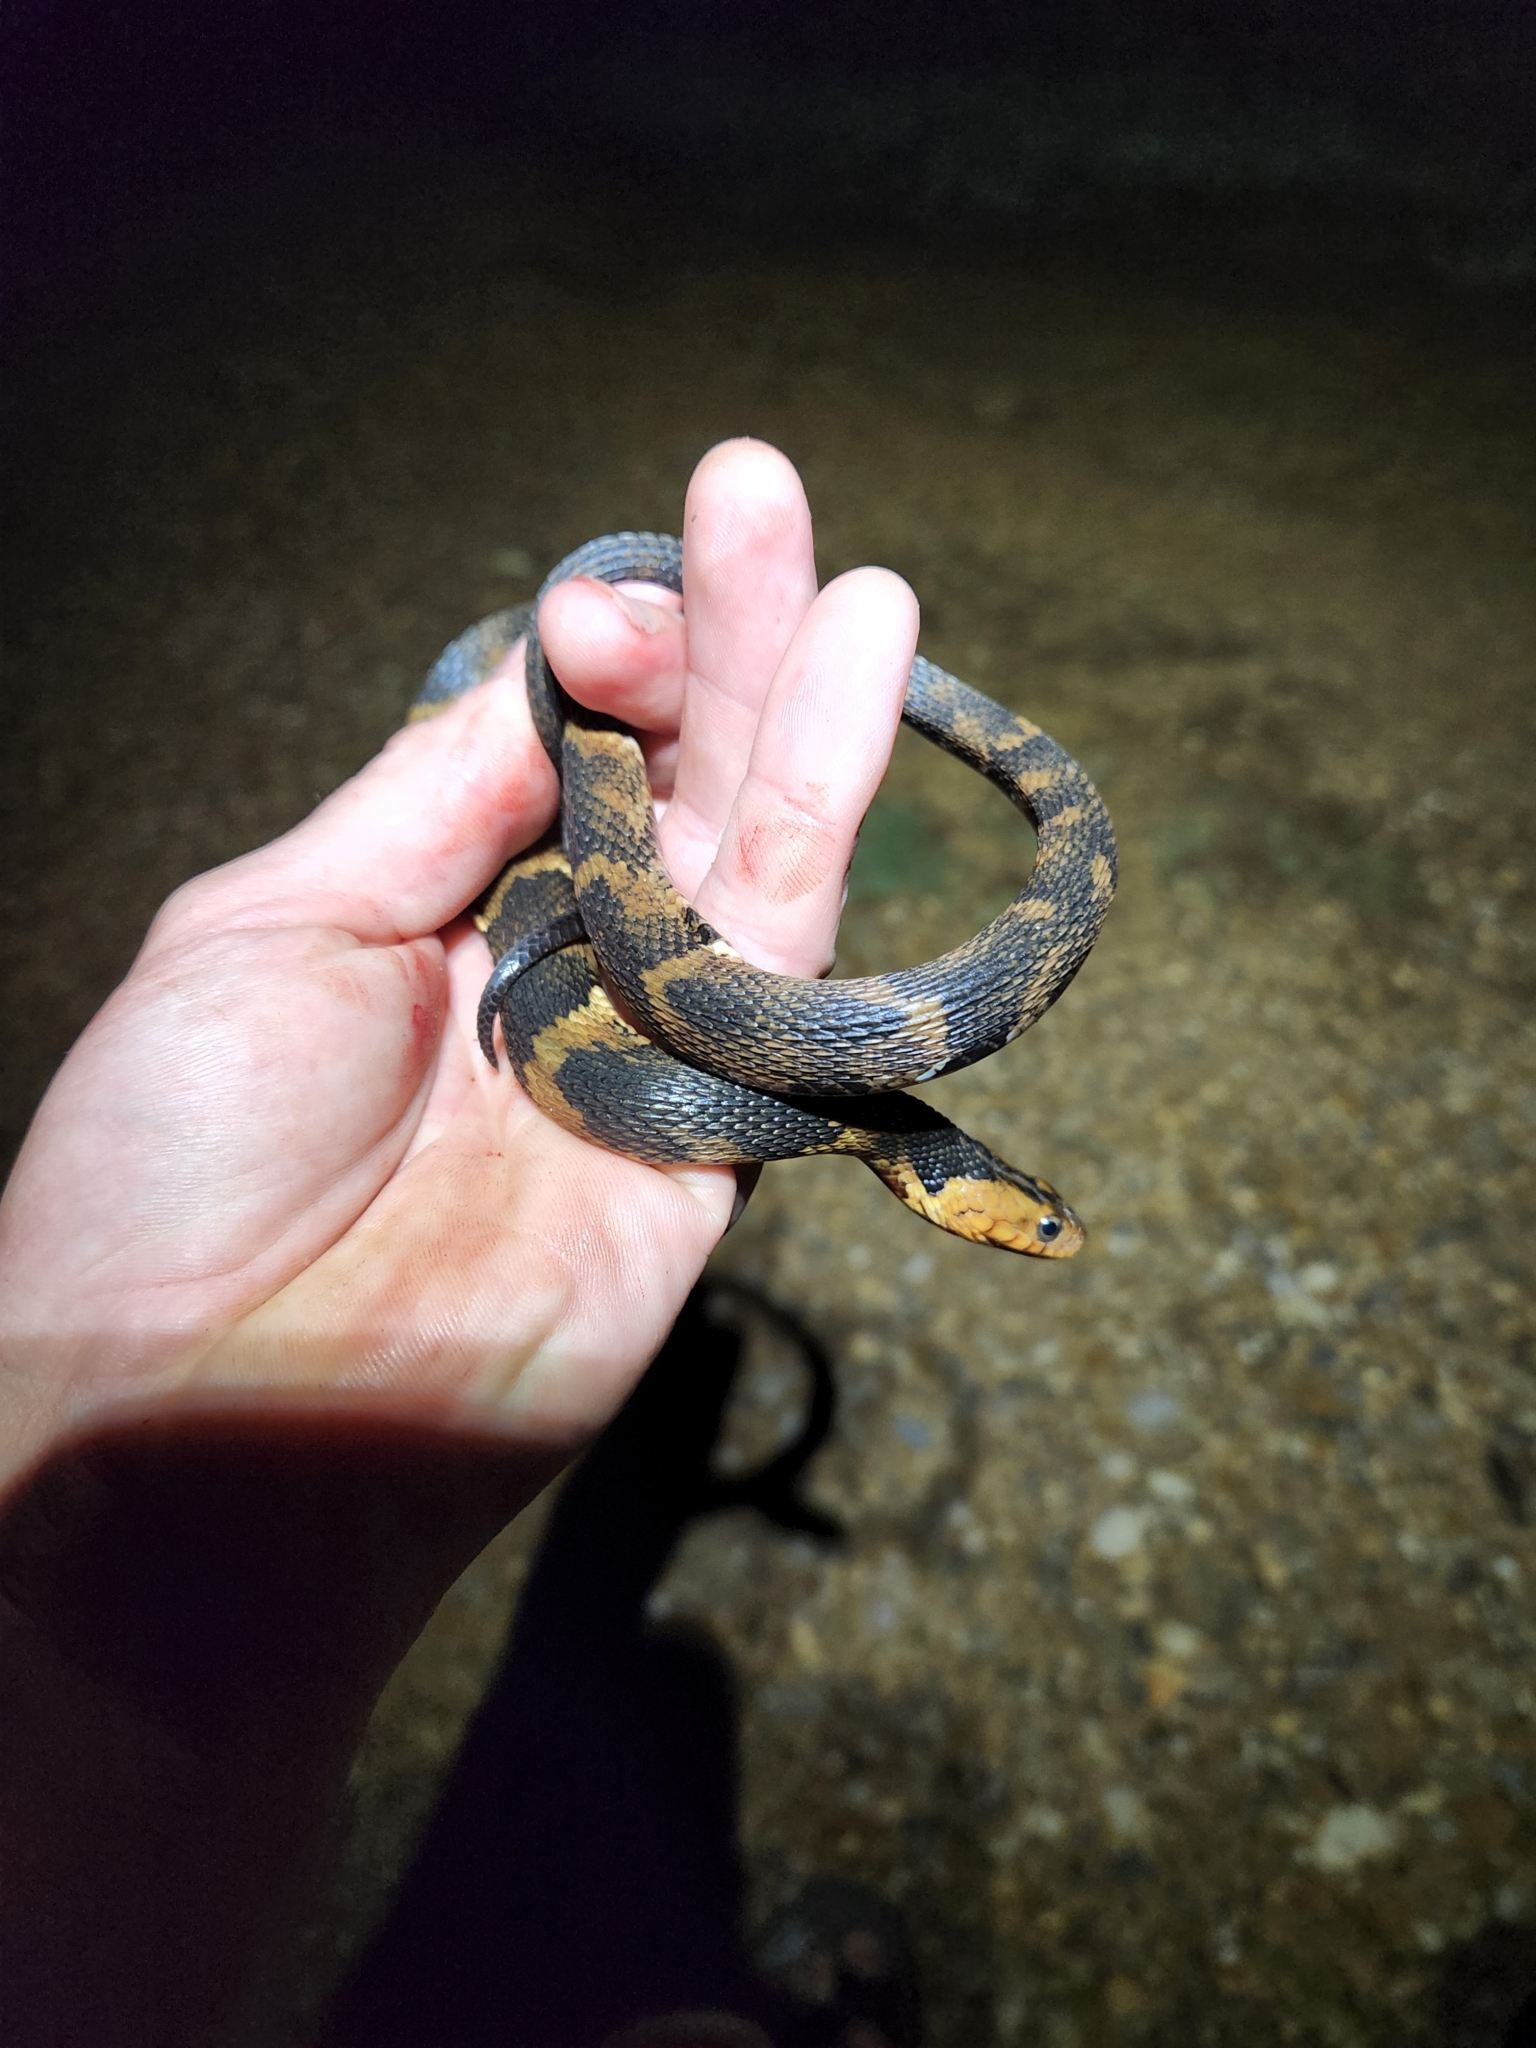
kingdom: Animalia
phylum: Chordata
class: Squamata
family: Colubridae
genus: Nerodia
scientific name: Nerodia fasciata
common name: Southern water snake
